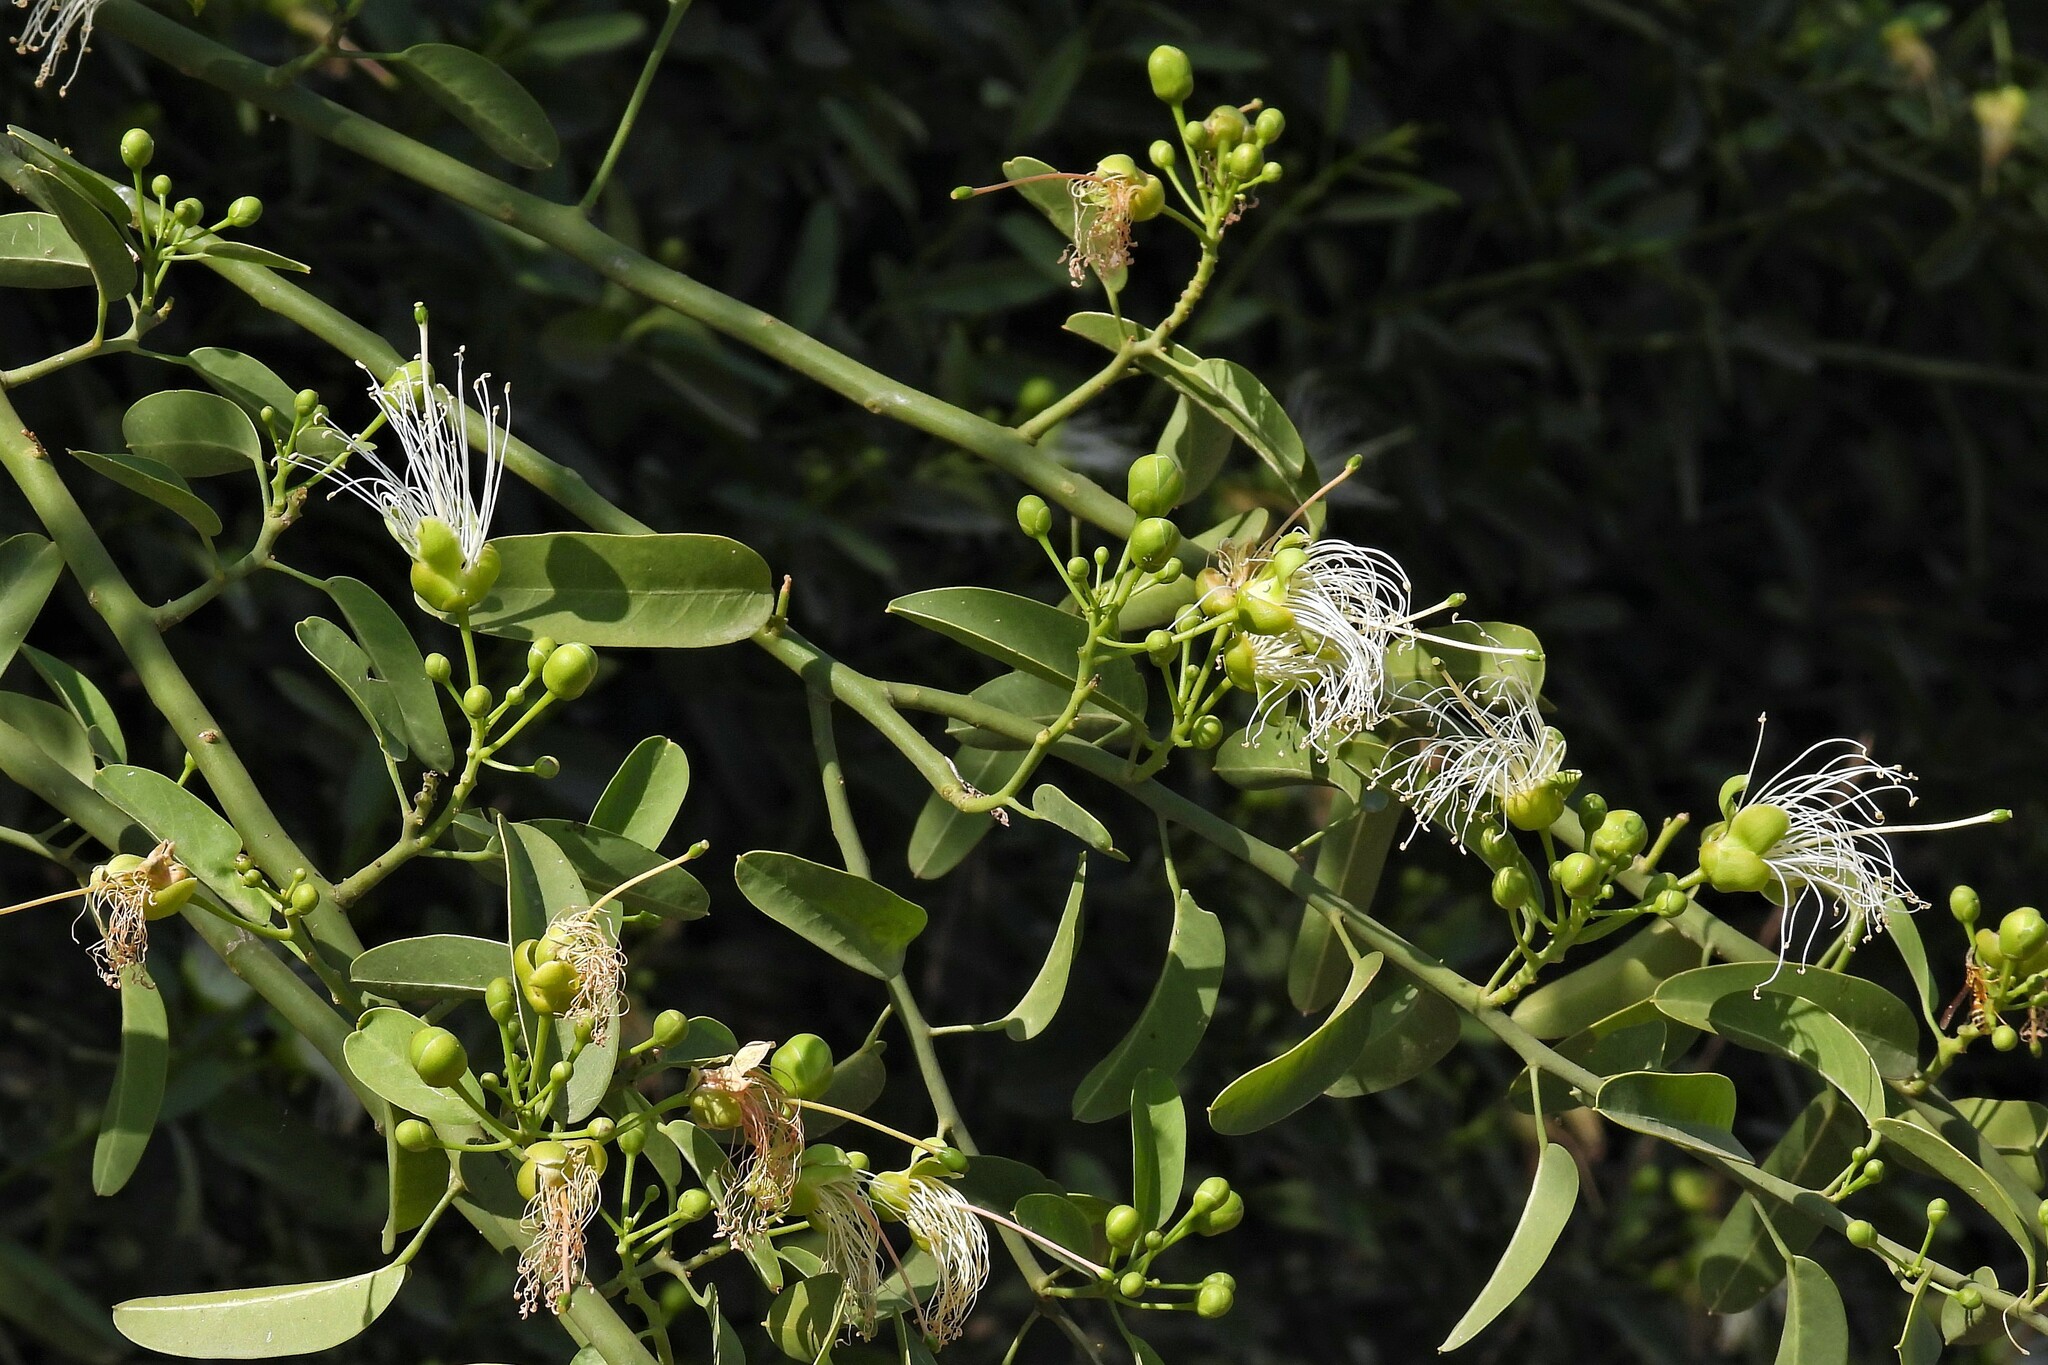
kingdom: Plantae
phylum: Tracheophyta
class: Magnoliopsida
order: Brassicales
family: Capparaceae
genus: Anisocapparis
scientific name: Anisocapparis speciosa
